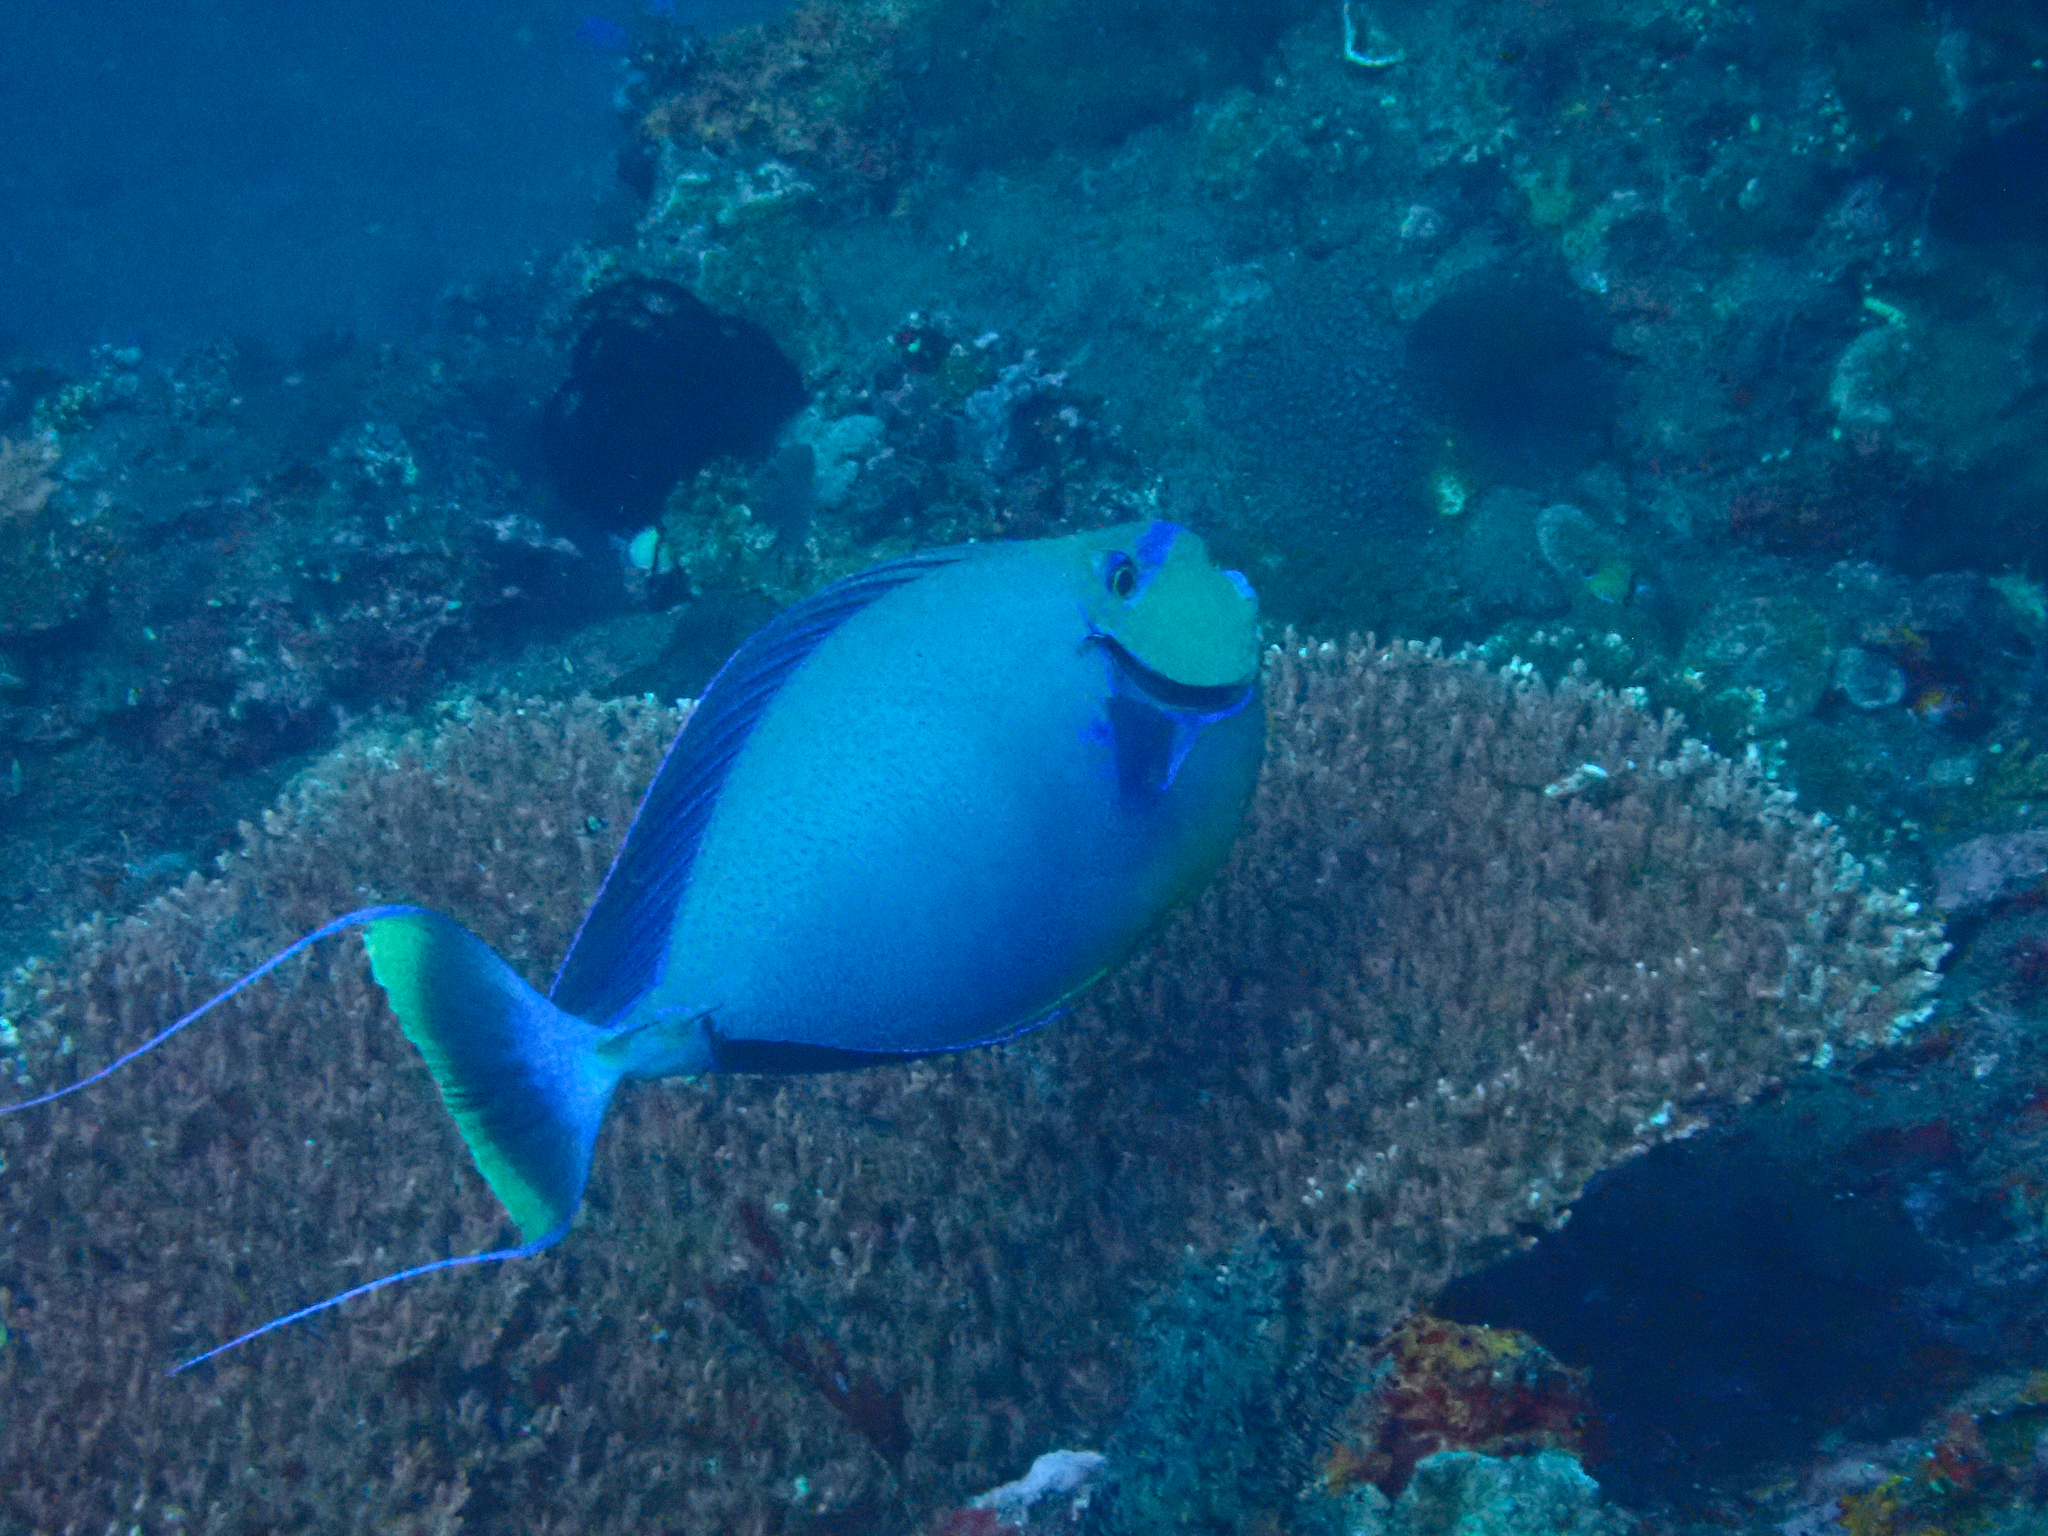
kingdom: Animalia
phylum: Chordata
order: Perciformes
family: Acanthuridae
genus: Naso
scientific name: Naso vlamingii
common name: Big-nose unicorn
